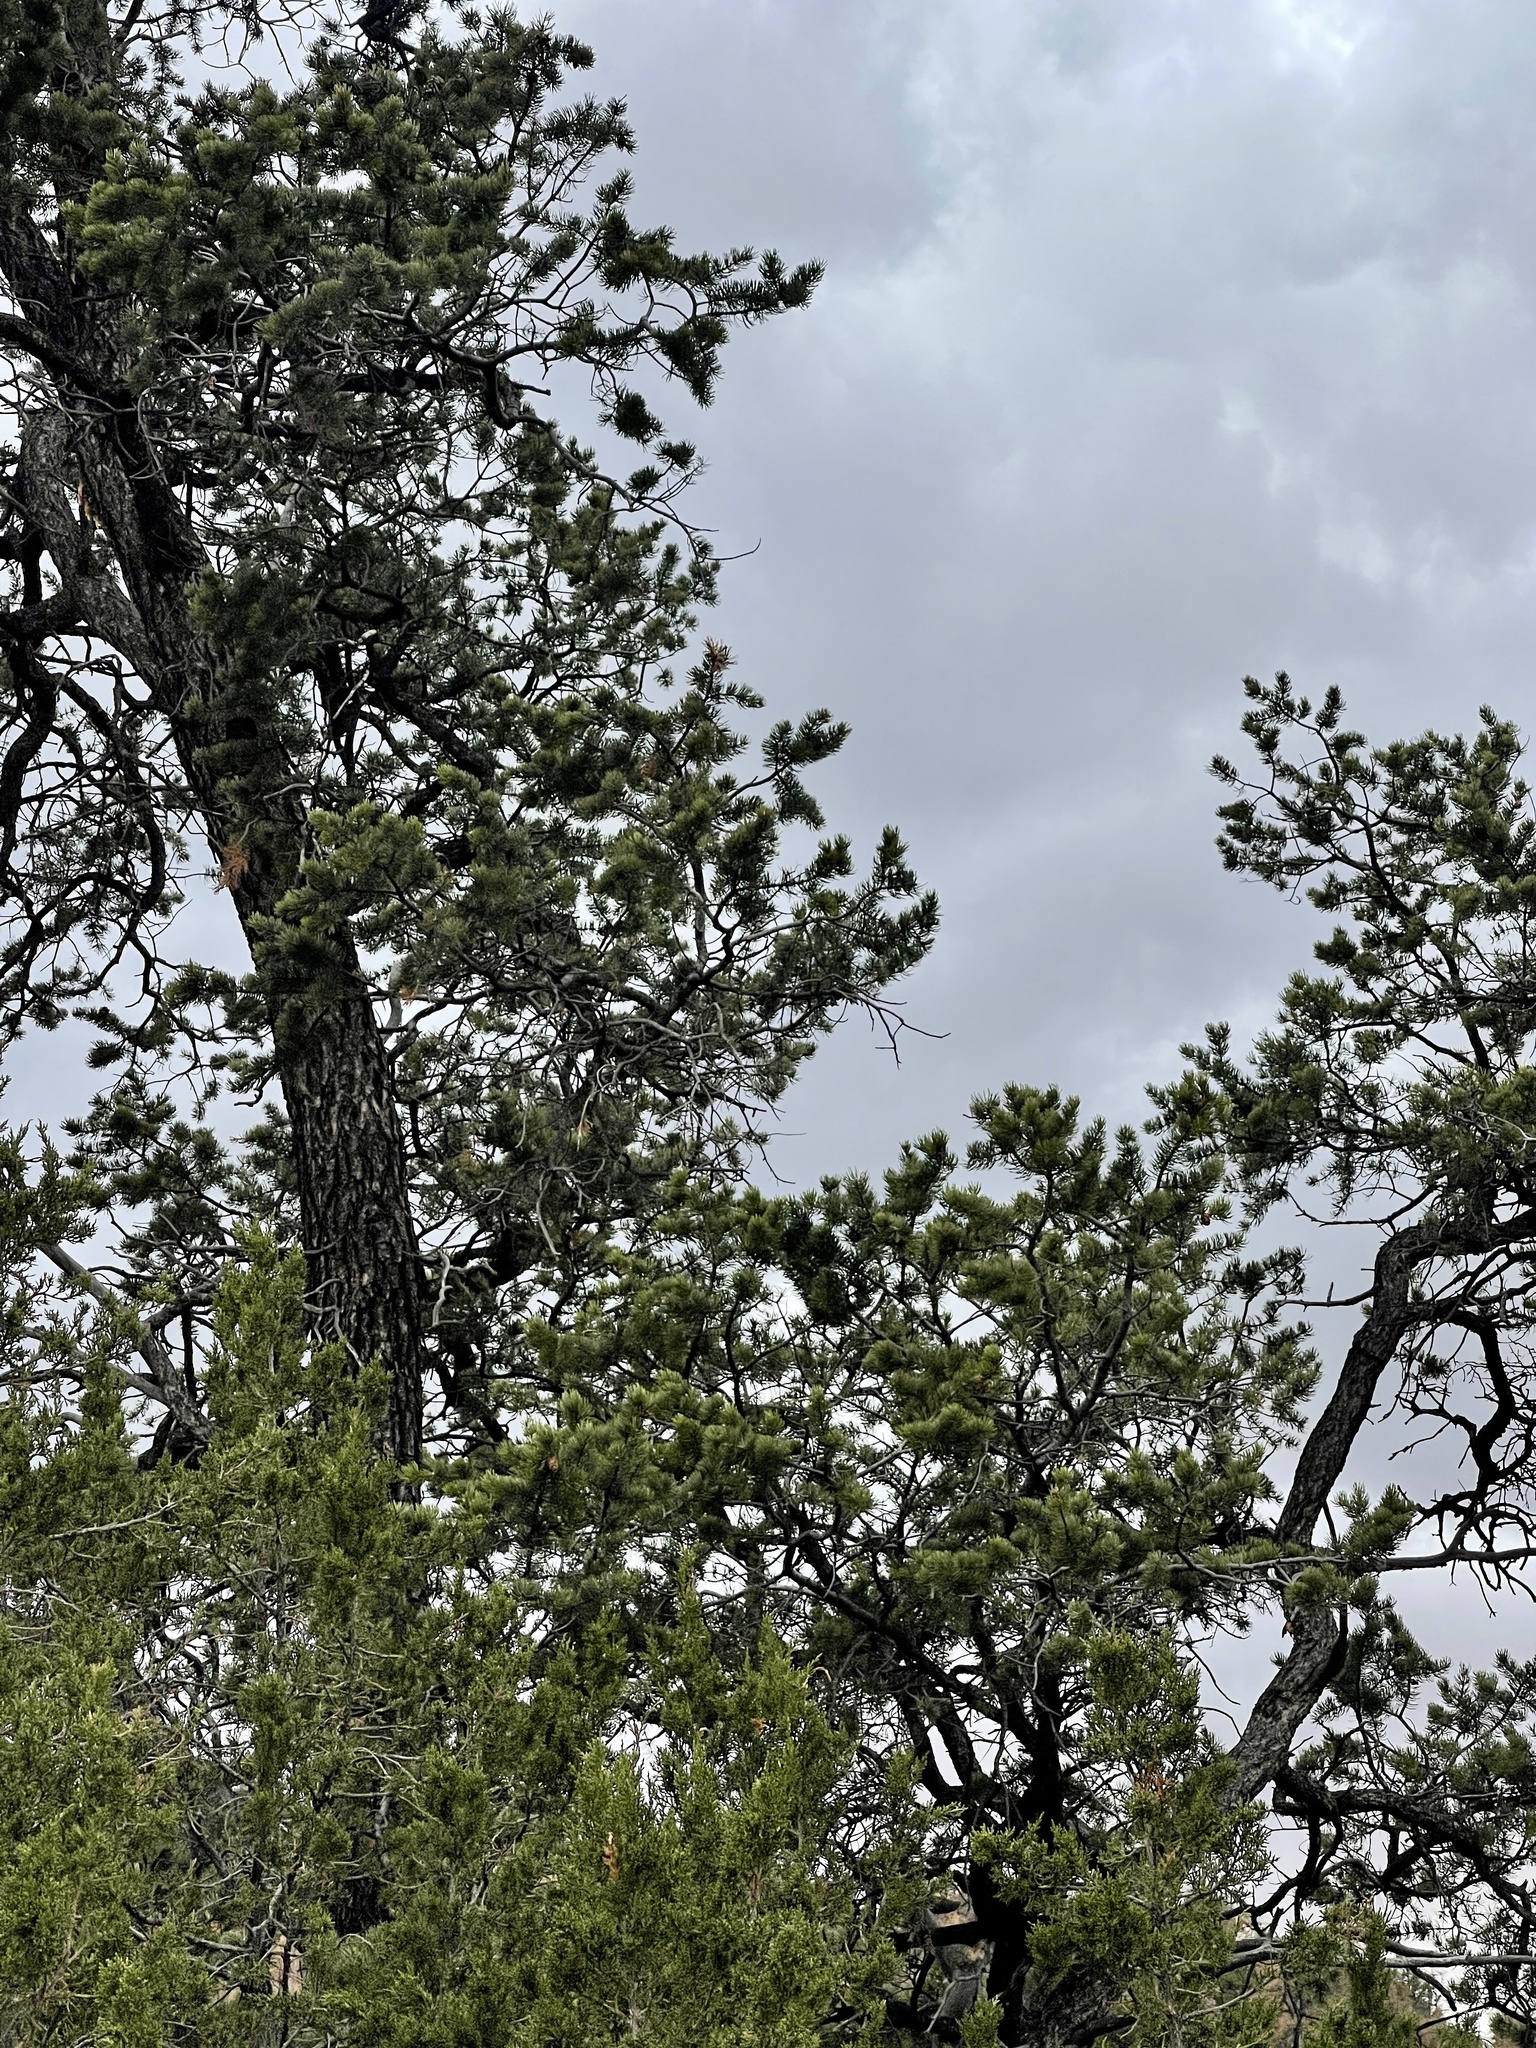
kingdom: Plantae
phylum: Tracheophyta
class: Pinopsida
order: Pinales
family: Pinaceae
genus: Pinus
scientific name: Pinus edulis
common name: Colorado pinyon
